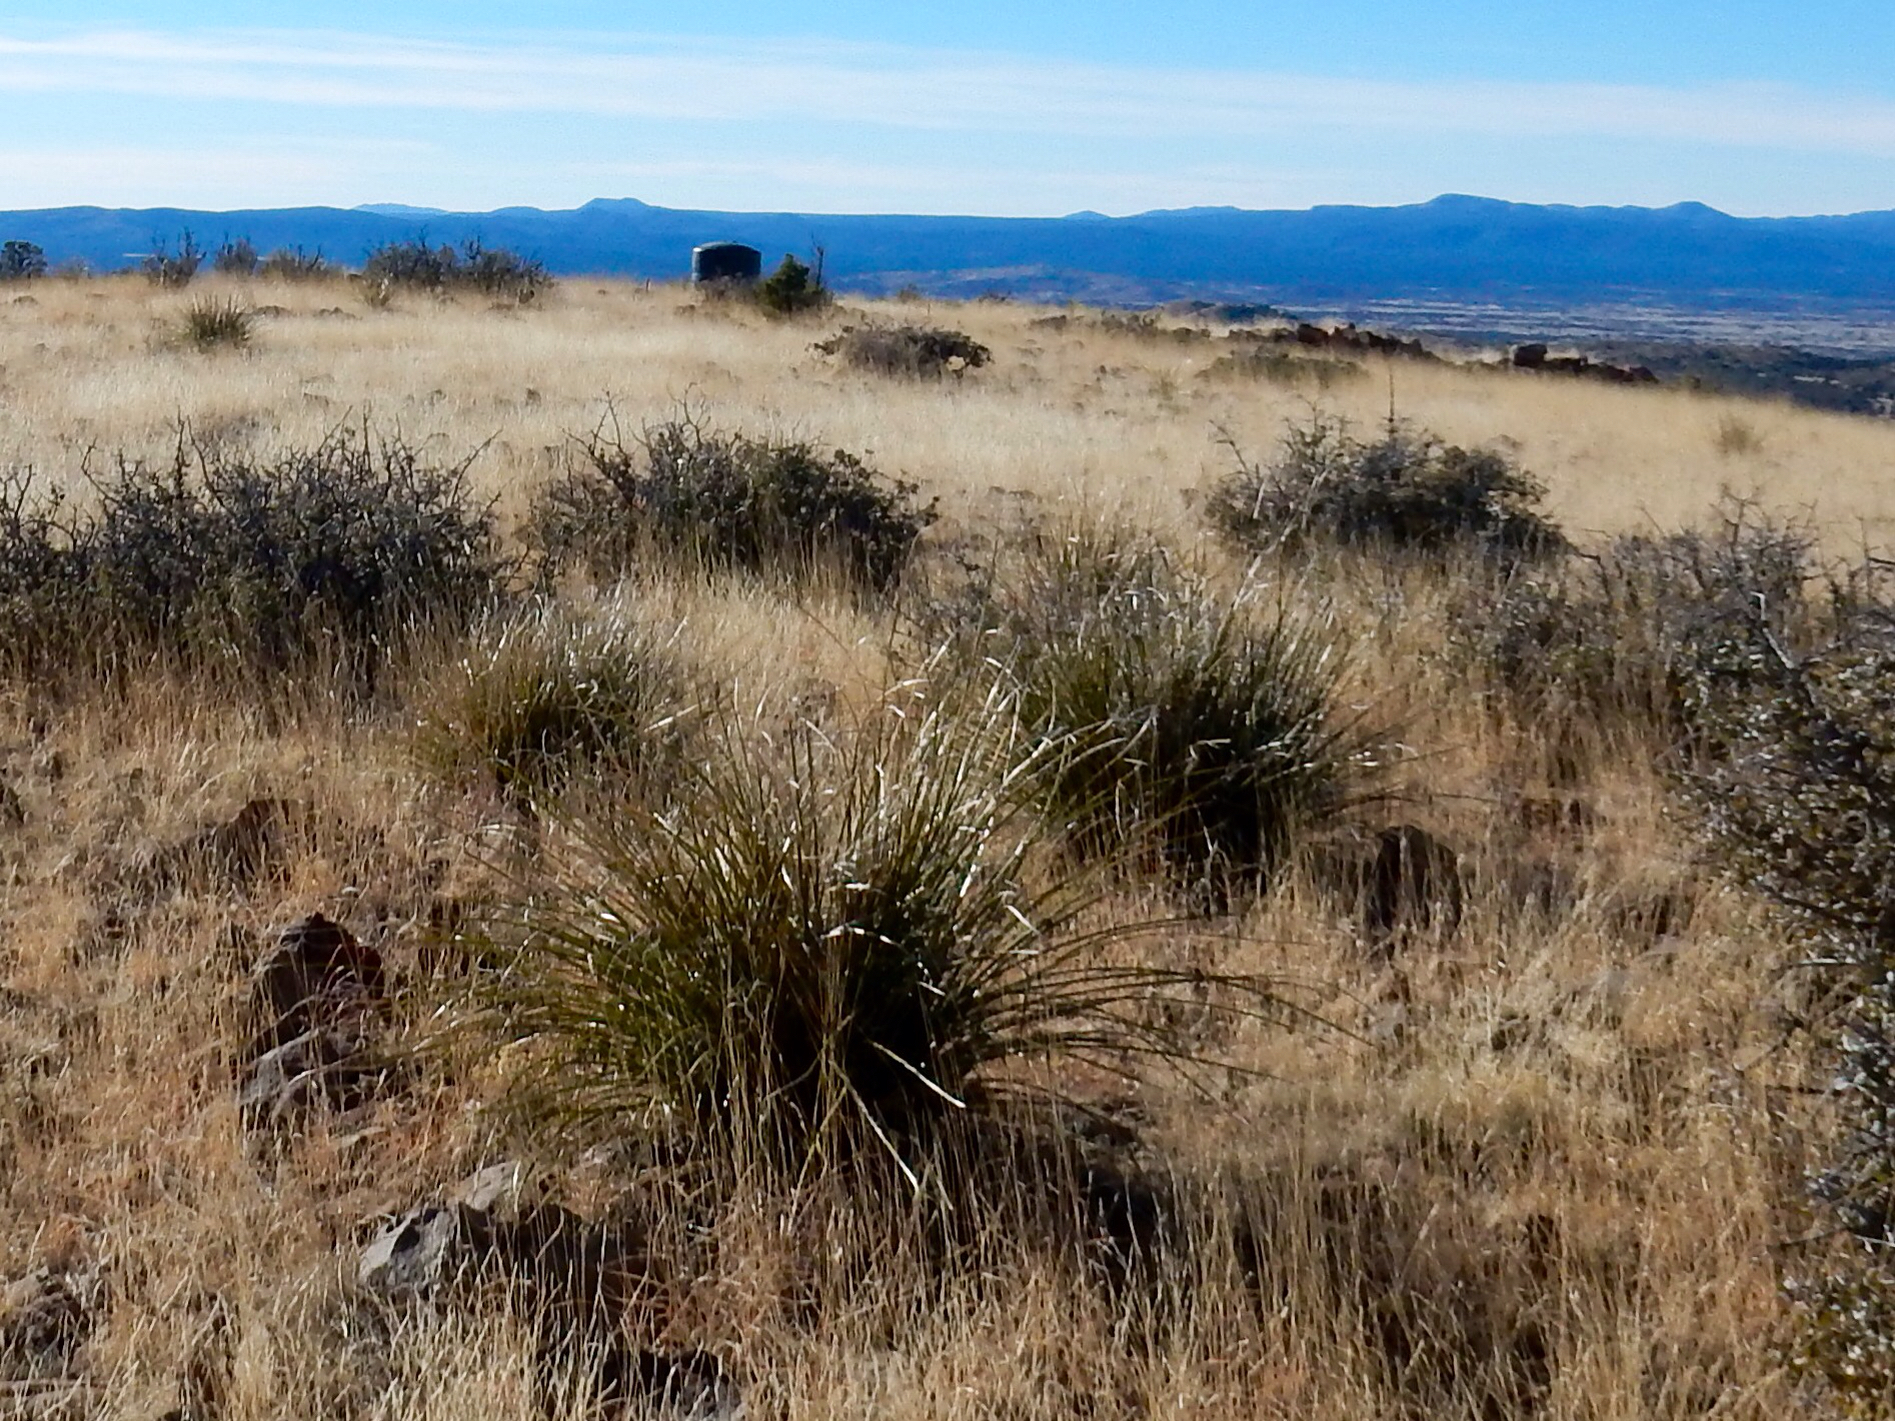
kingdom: Plantae
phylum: Tracheophyta
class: Liliopsida
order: Asparagales
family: Asparagaceae
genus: Nolina
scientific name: Nolina microcarpa
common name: Bear-grass
